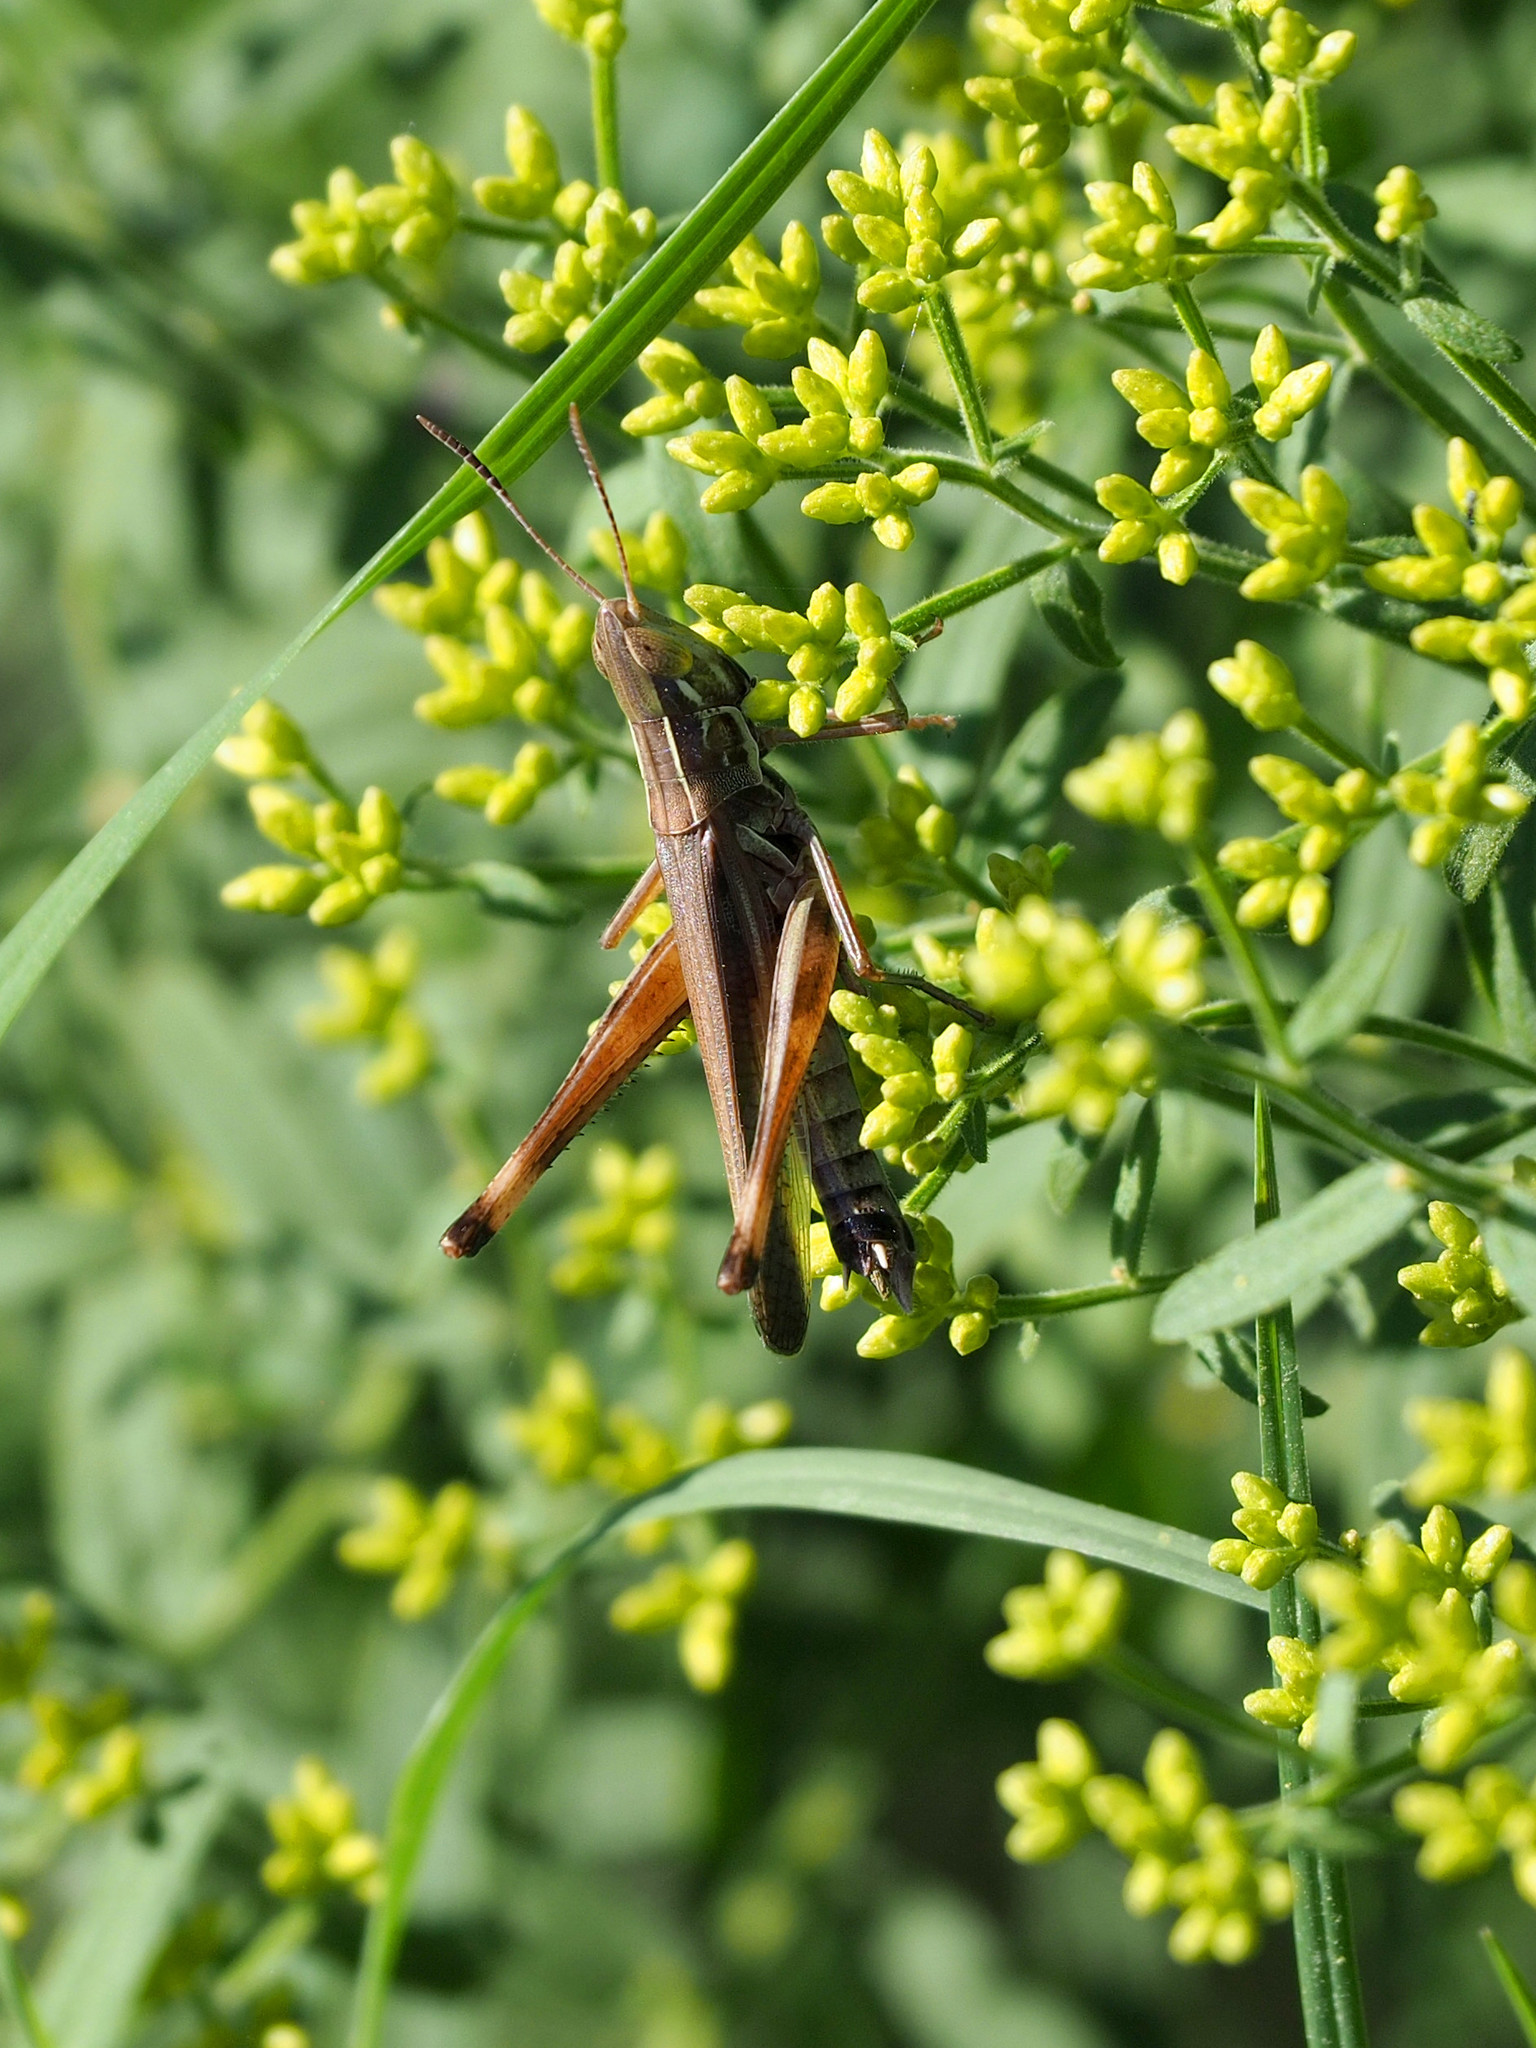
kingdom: Animalia
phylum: Arthropoda
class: Insecta
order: Orthoptera
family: Acrididae
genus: Syrbula
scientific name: Syrbula admirabilis
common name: Handsome grasshopper
